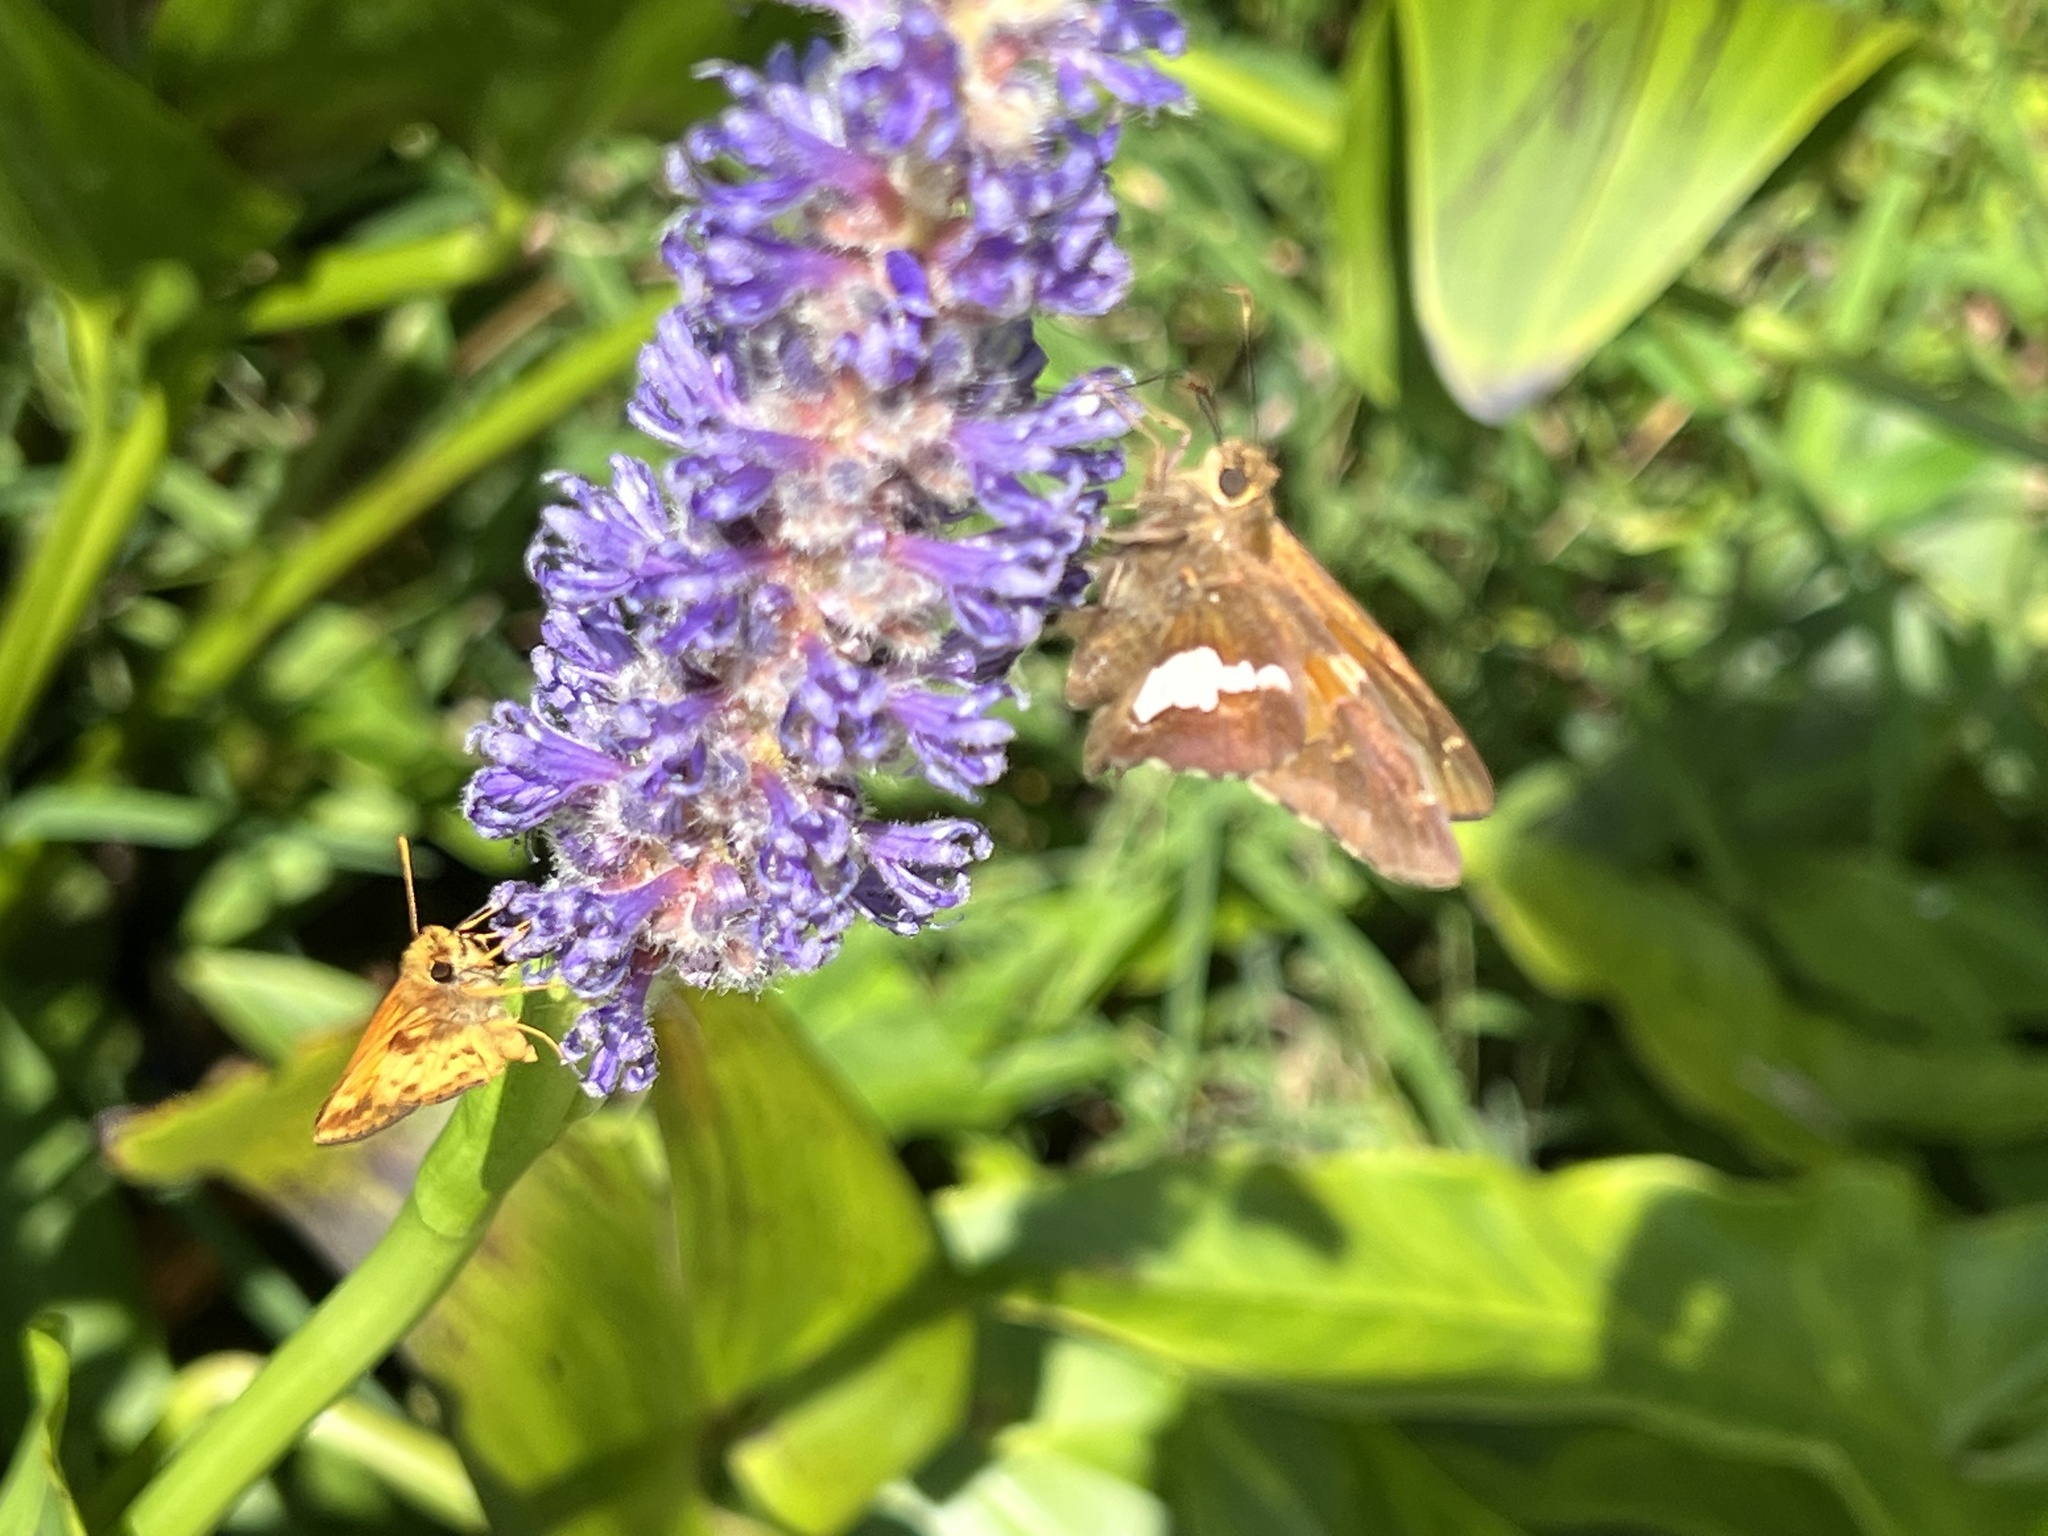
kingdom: Animalia
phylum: Arthropoda
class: Insecta
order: Lepidoptera
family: Hesperiidae
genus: Epargyreus
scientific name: Epargyreus clarus
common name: Silver-spotted skipper
